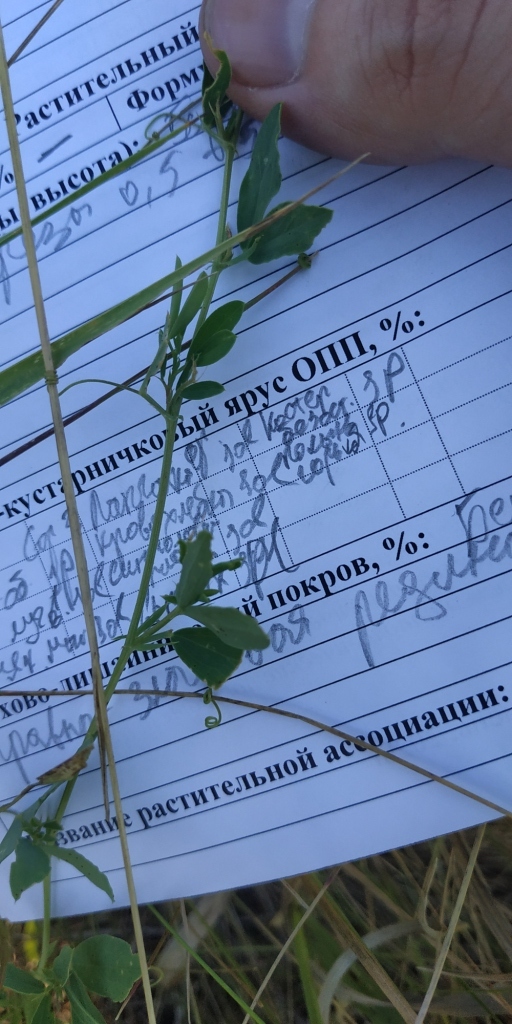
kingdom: Plantae
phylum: Tracheophyta
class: Magnoliopsida
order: Fabales
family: Fabaceae
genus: Lathyrus
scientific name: Lathyrus tuberosus
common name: Tuberous pea
